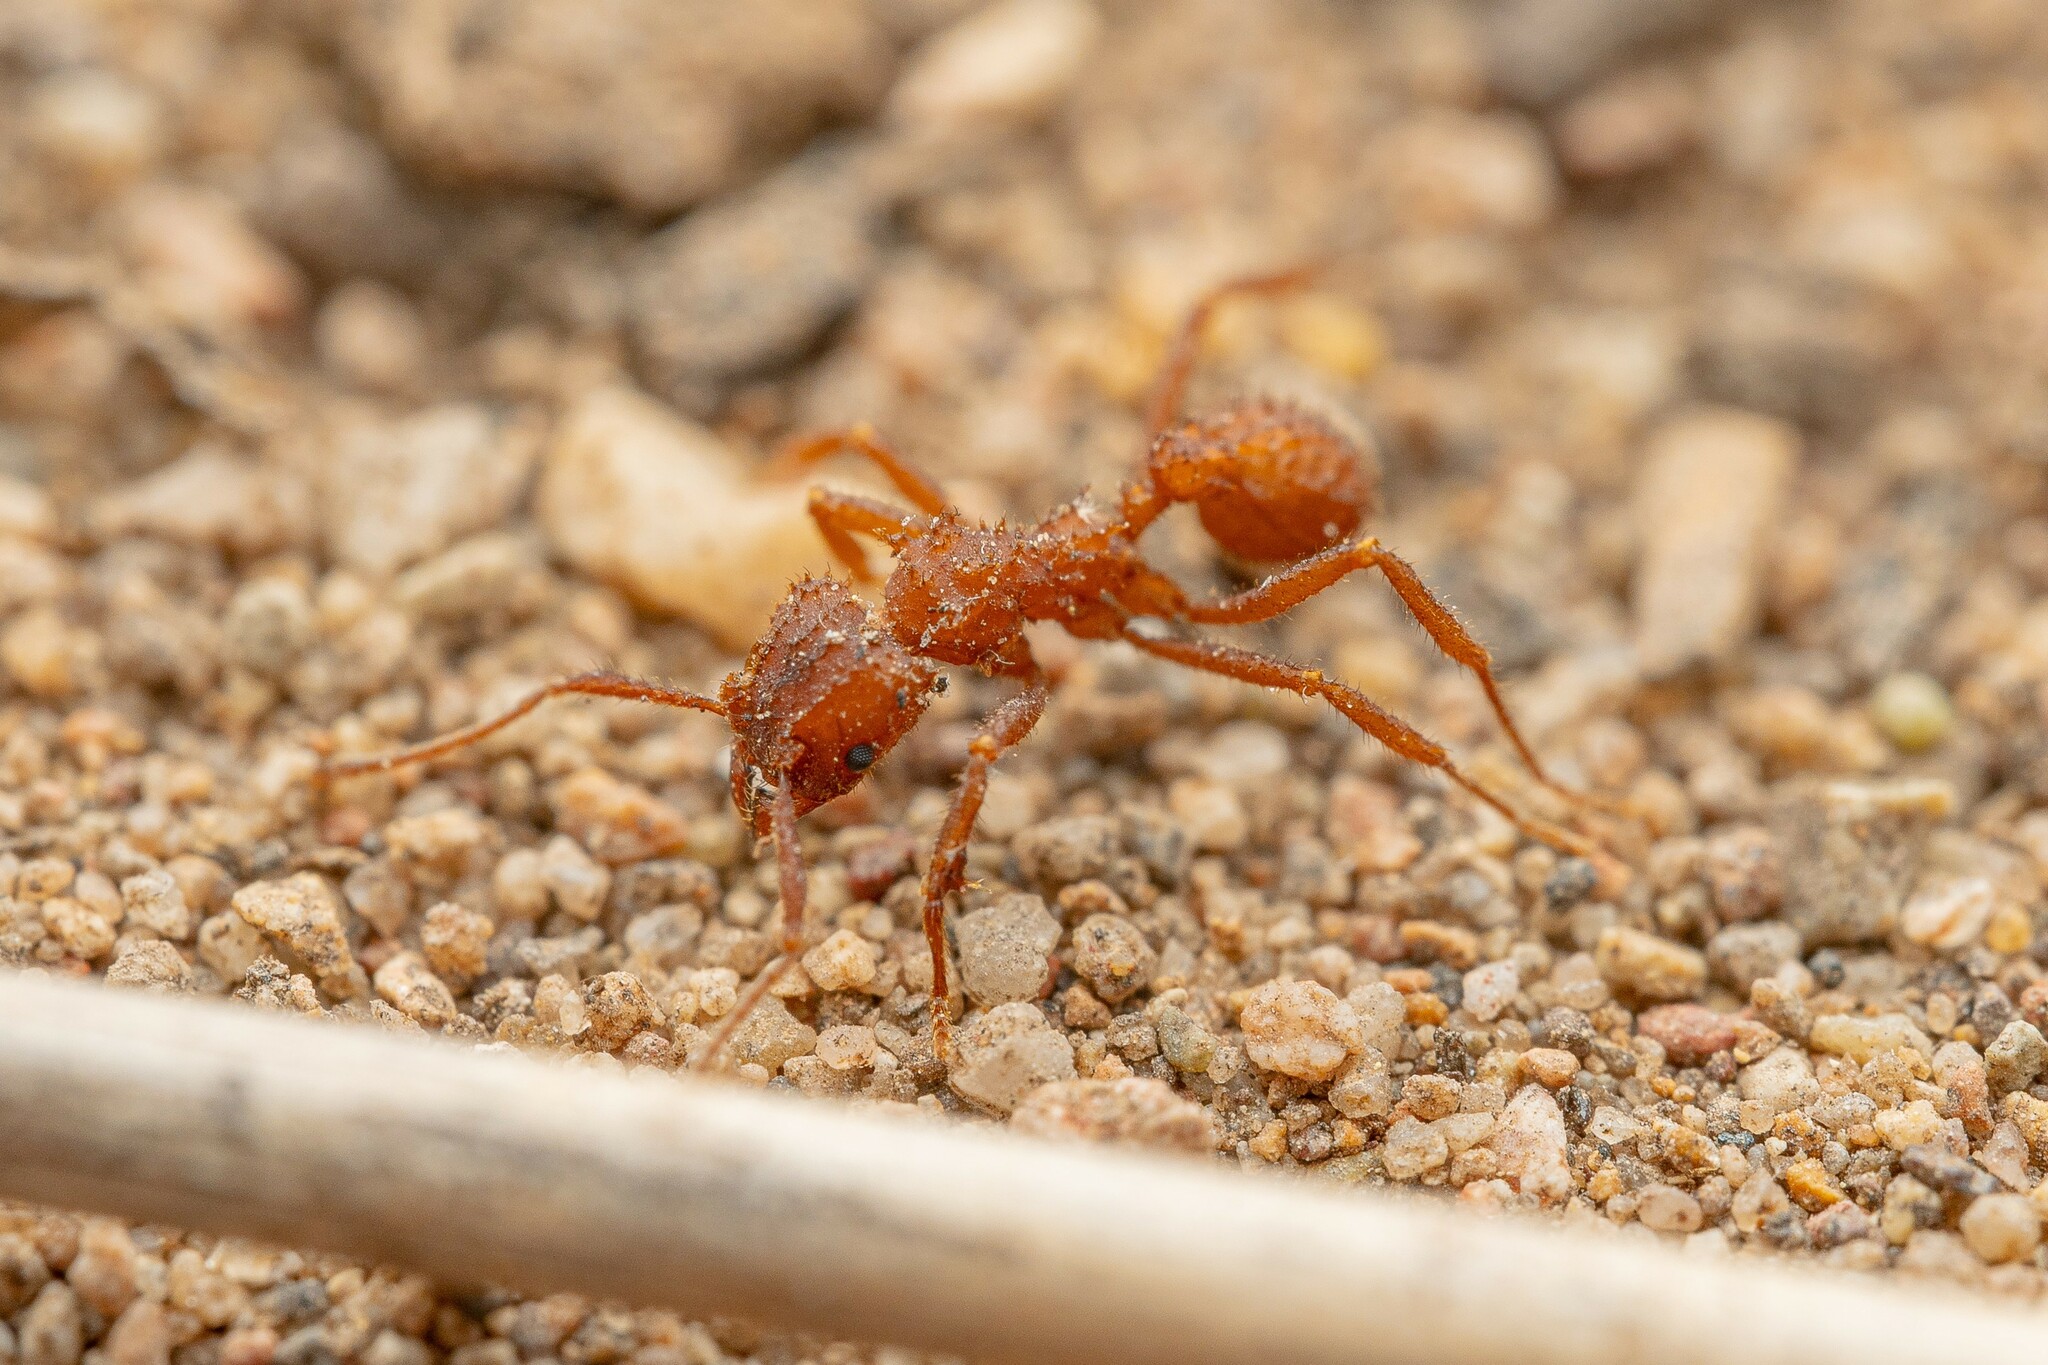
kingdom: Animalia
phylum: Arthropoda
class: Insecta
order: Hymenoptera
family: Formicidae
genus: Trachymyrmex
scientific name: Trachymyrmex arizonensis
